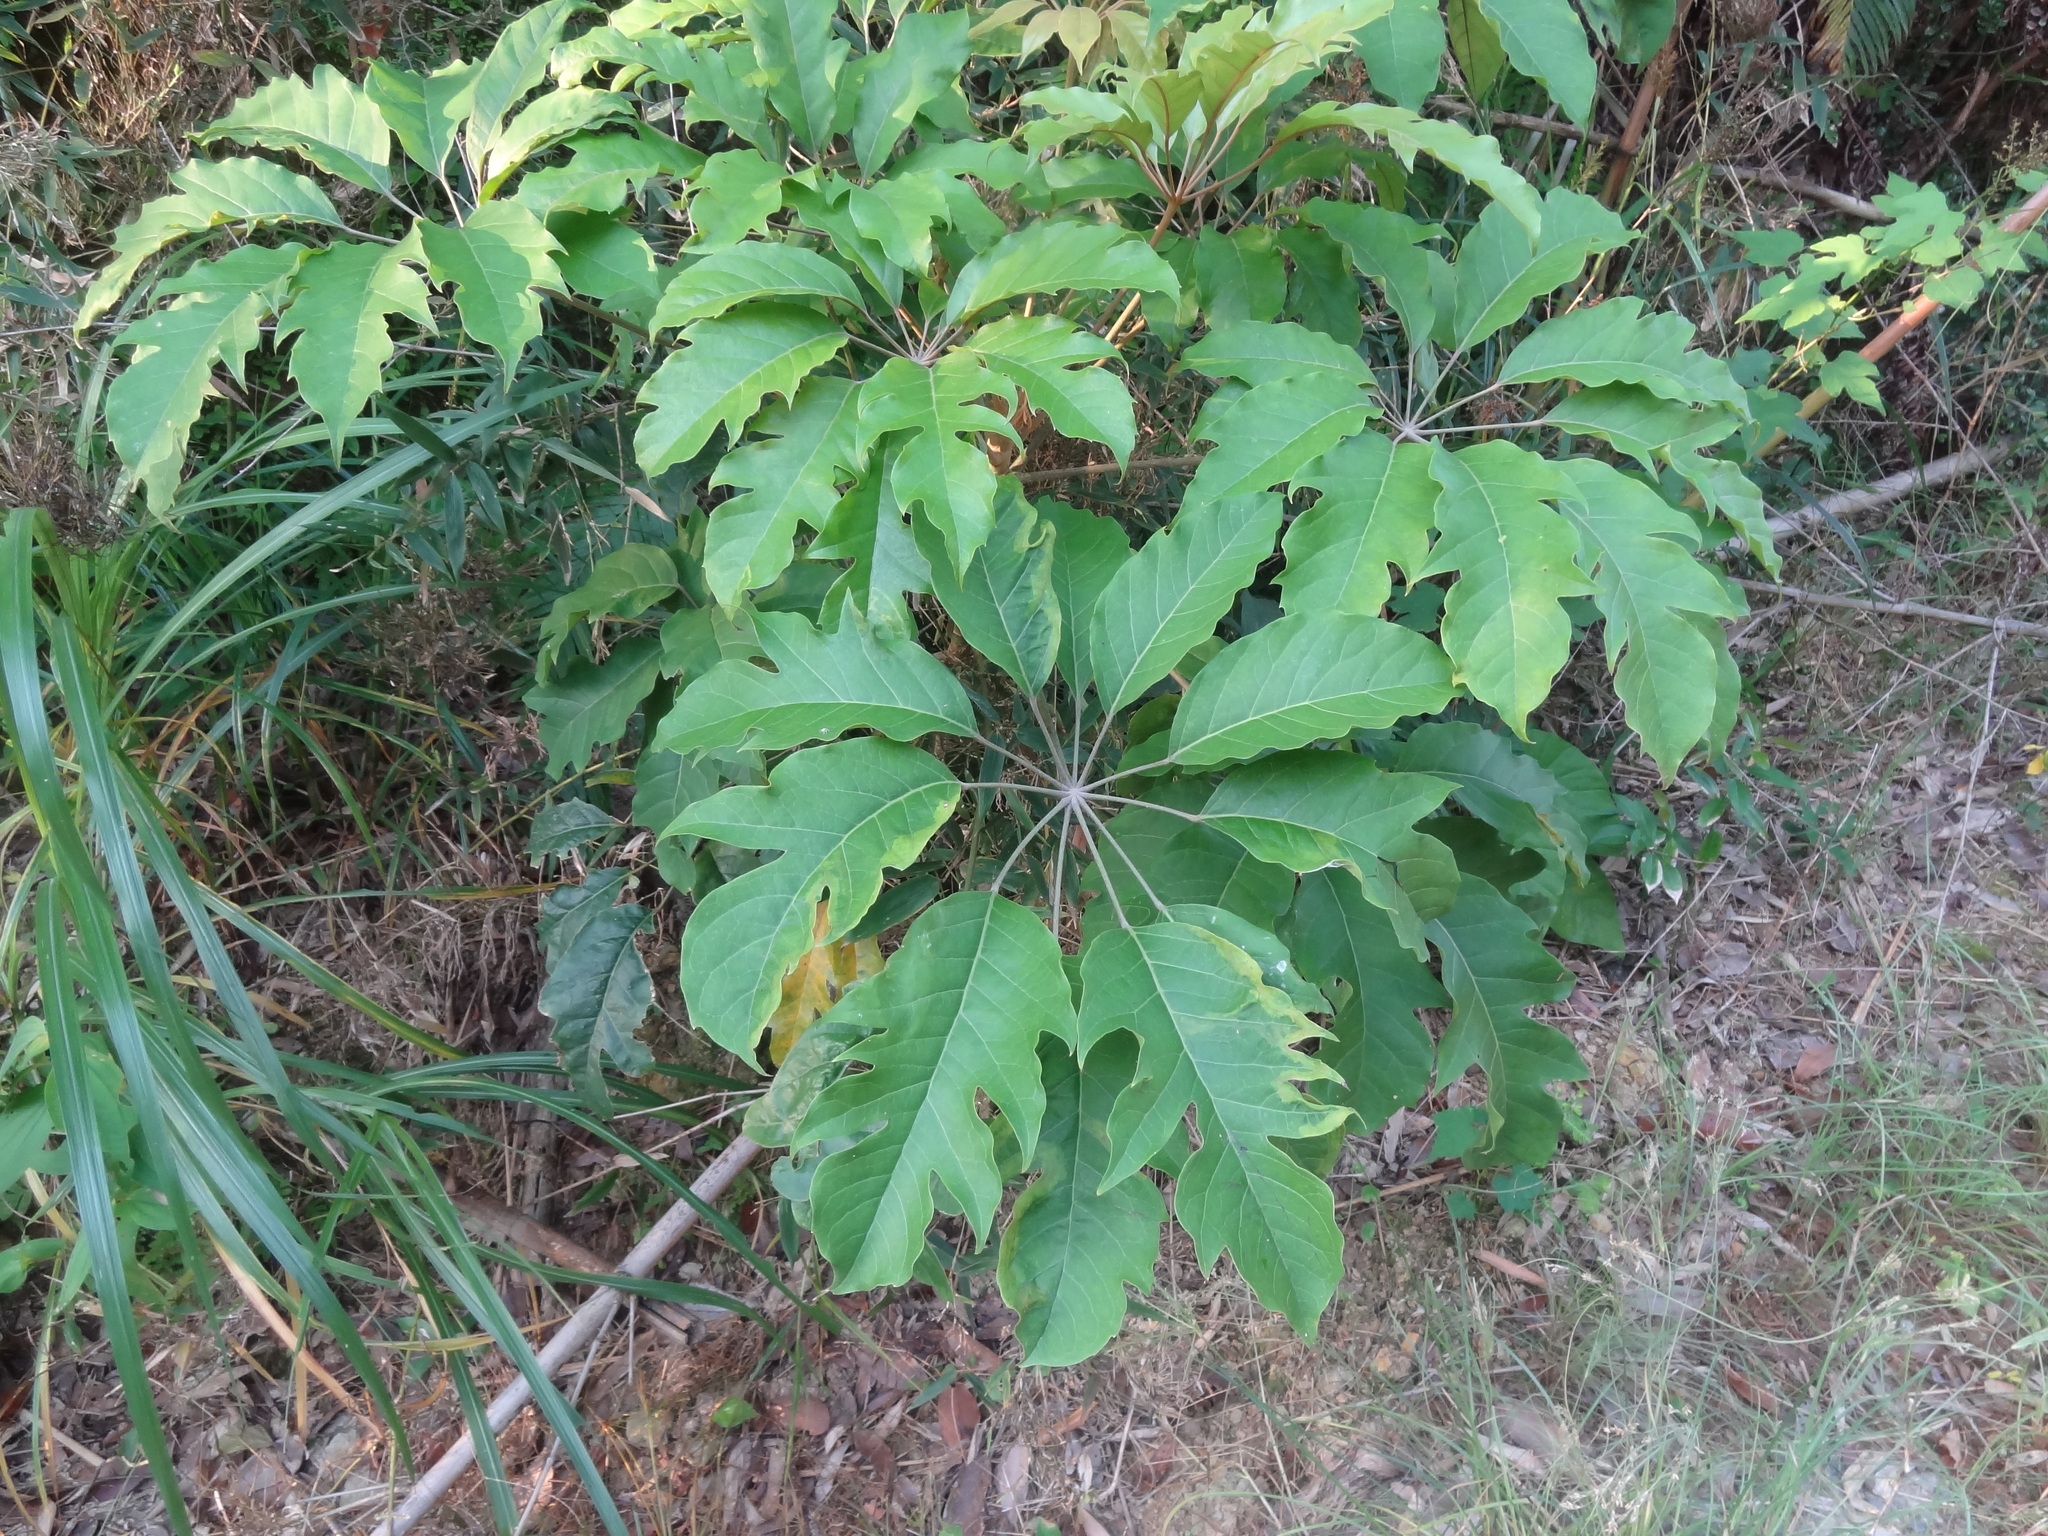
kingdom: Plantae
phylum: Tracheophyta
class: Magnoliopsida
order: Apiales
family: Araliaceae
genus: Heptapleurum
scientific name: Heptapleurum heptaphyllum
